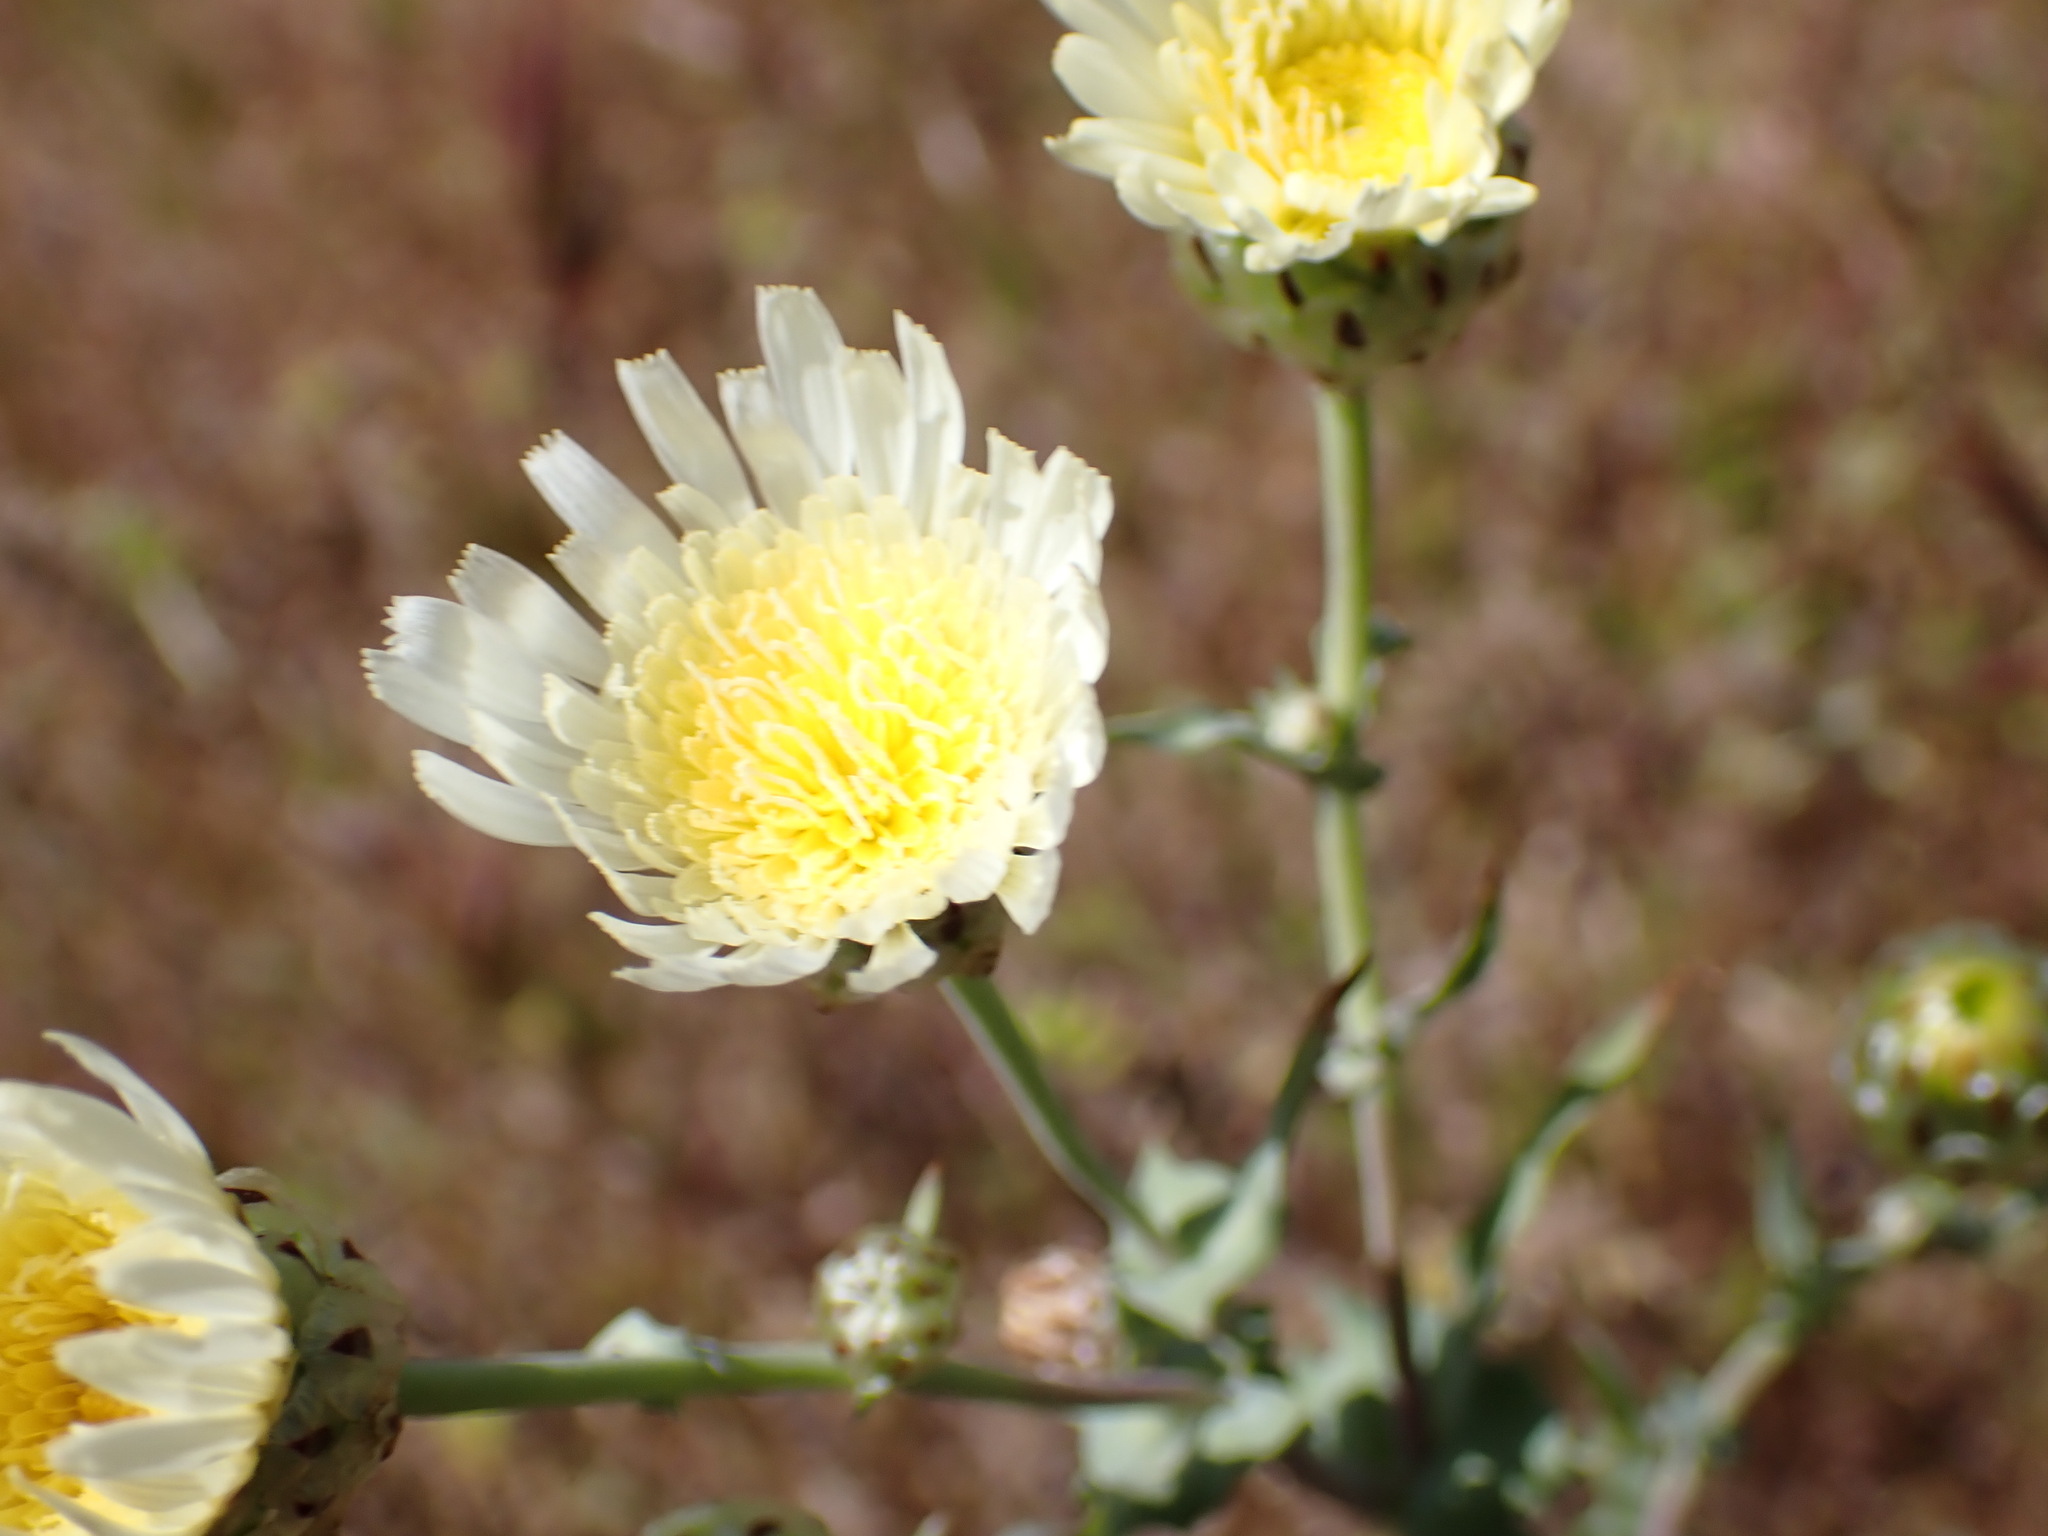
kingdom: Plantae
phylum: Tracheophyta
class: Magnoliopsida
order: Asterales
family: Asteraceae
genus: Malacothrix
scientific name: Malacothrix coulteri
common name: Snake's-head
